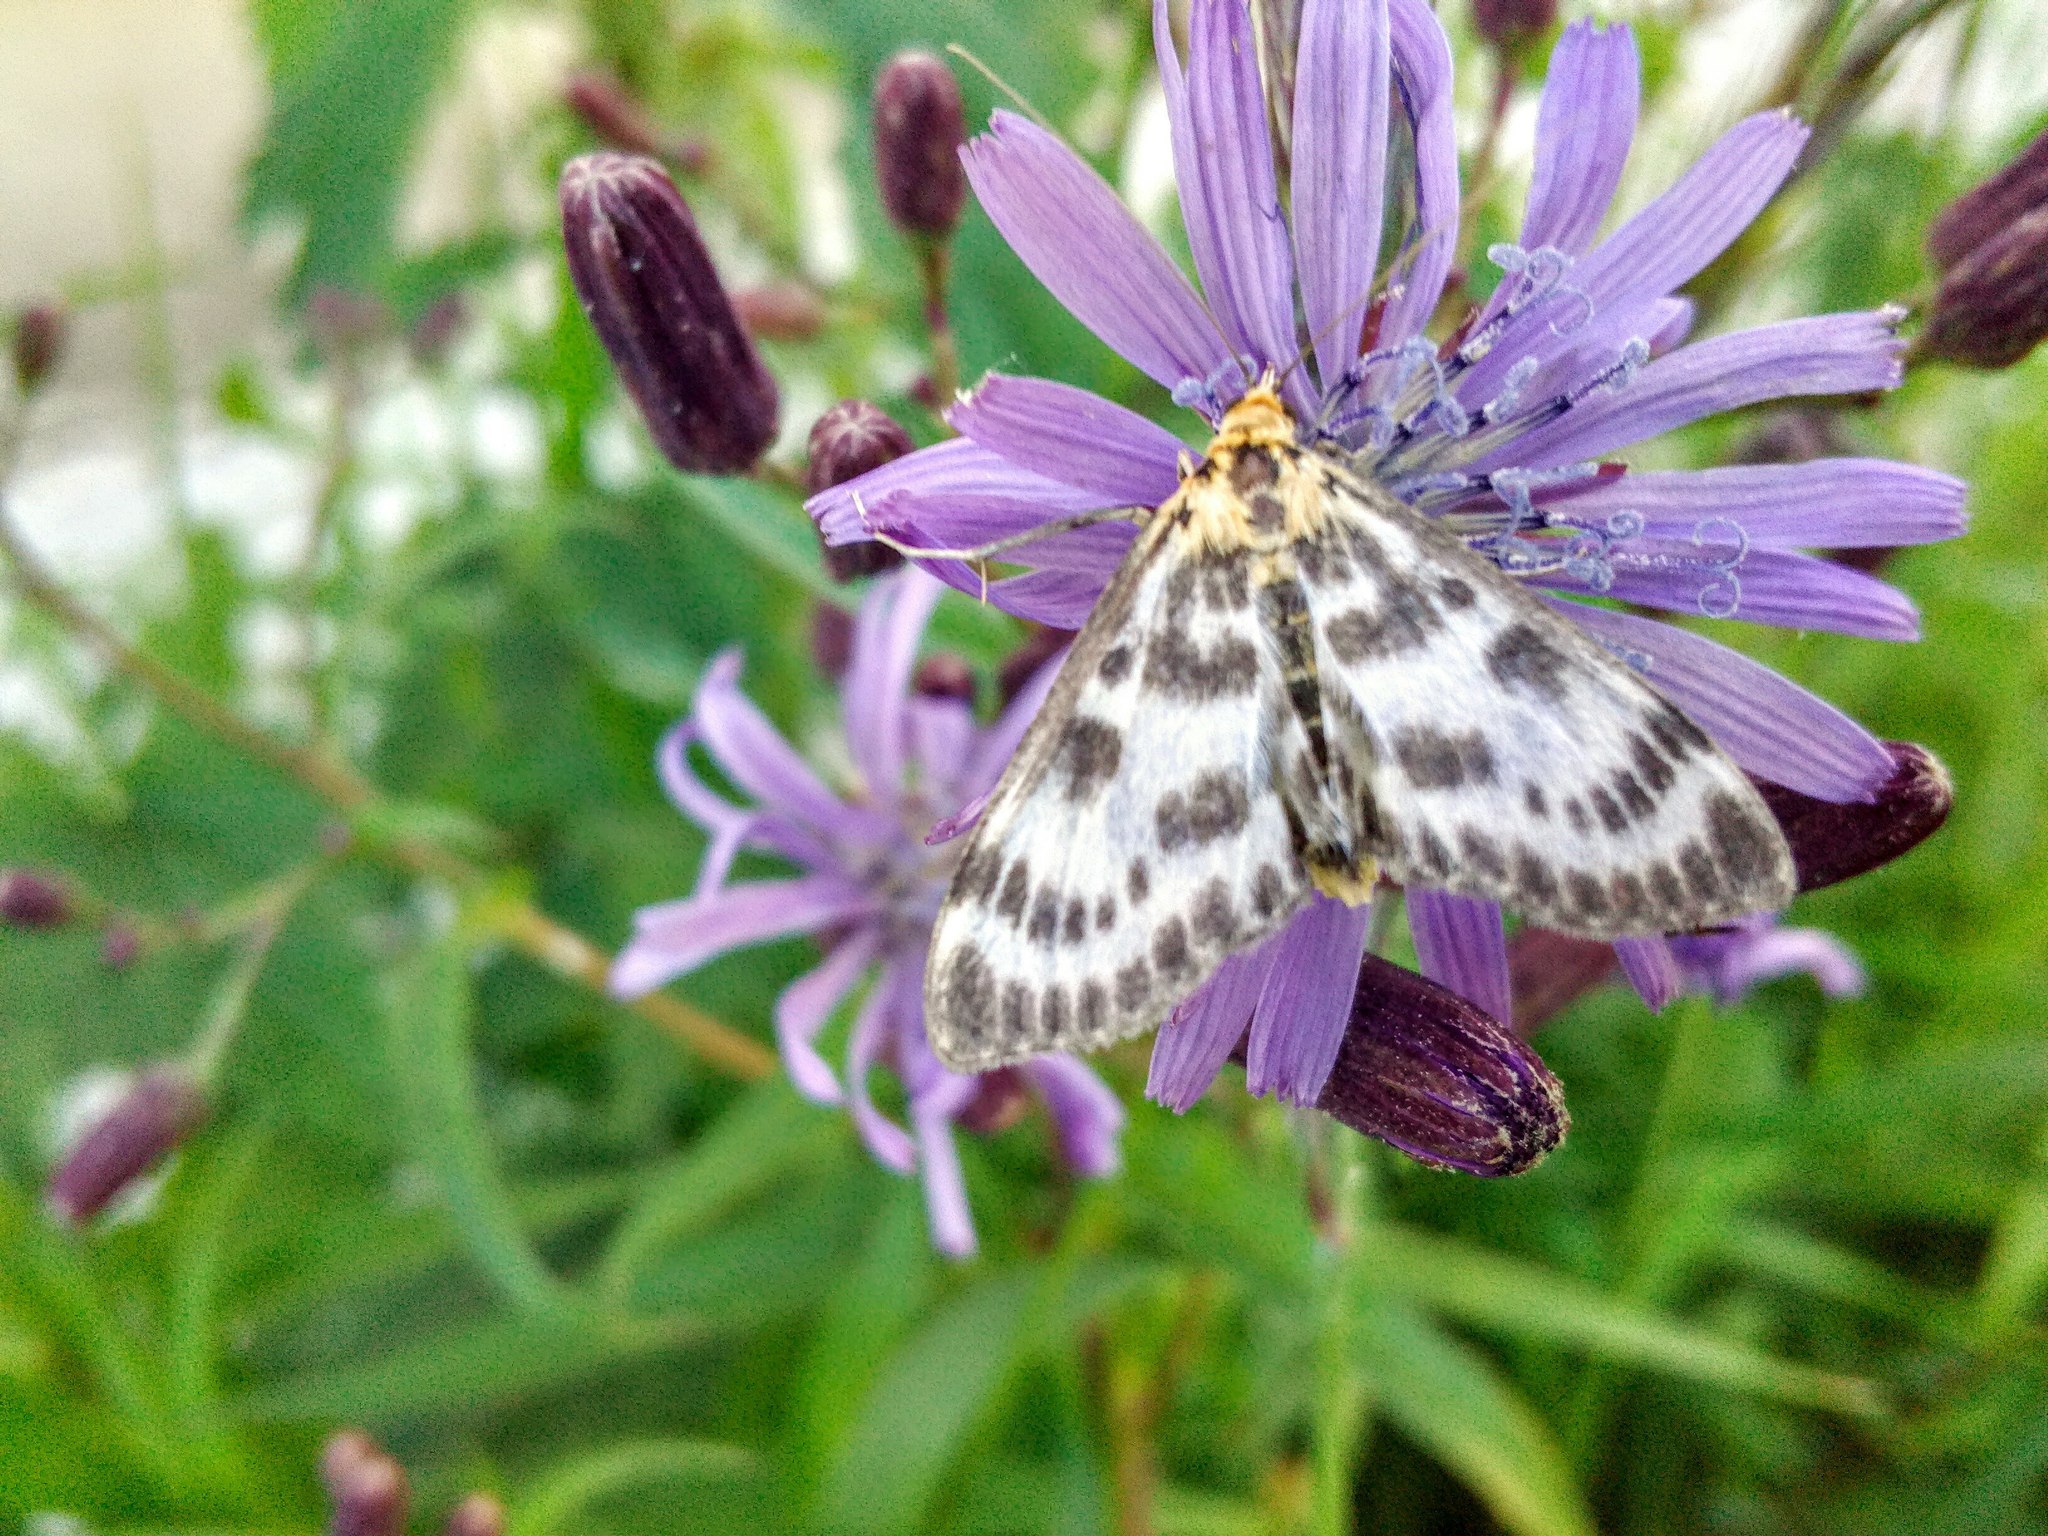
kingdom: Animalia
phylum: Arthropoda
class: Insecta
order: Lepidoptera
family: Crambidae
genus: Anania
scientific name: Anania hortulata
